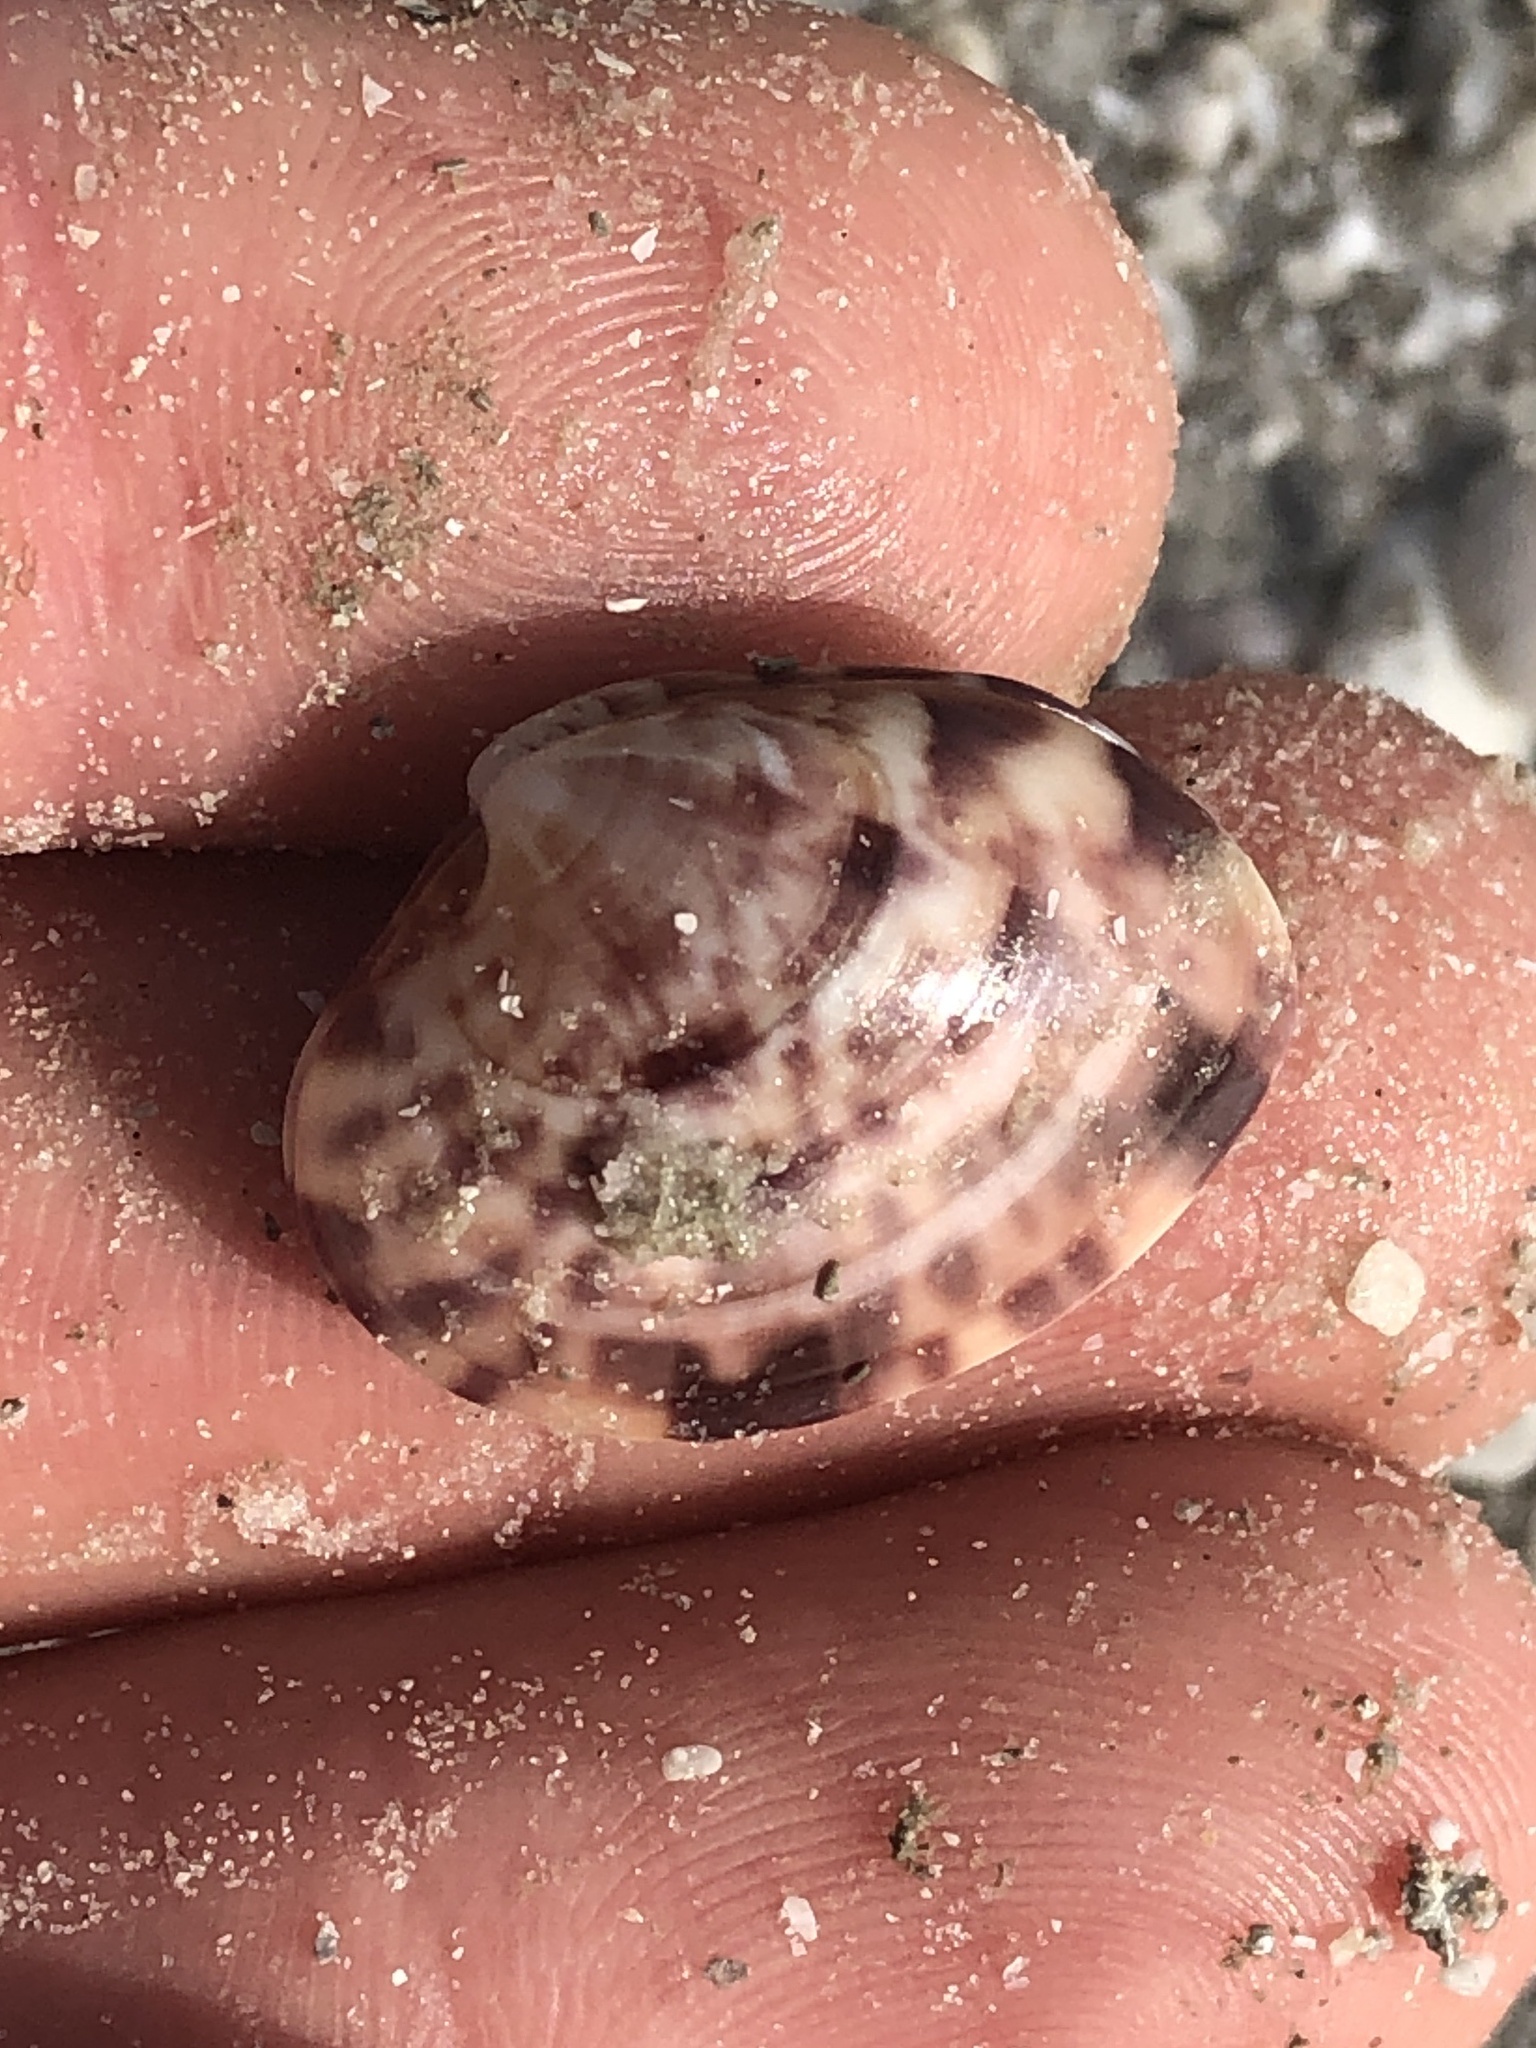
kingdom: Animalia
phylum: Mollusca
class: Bivalvia
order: Venerida
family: Veneridae
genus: Megapitaria
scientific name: Megapitaria maculata
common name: Calico clam
